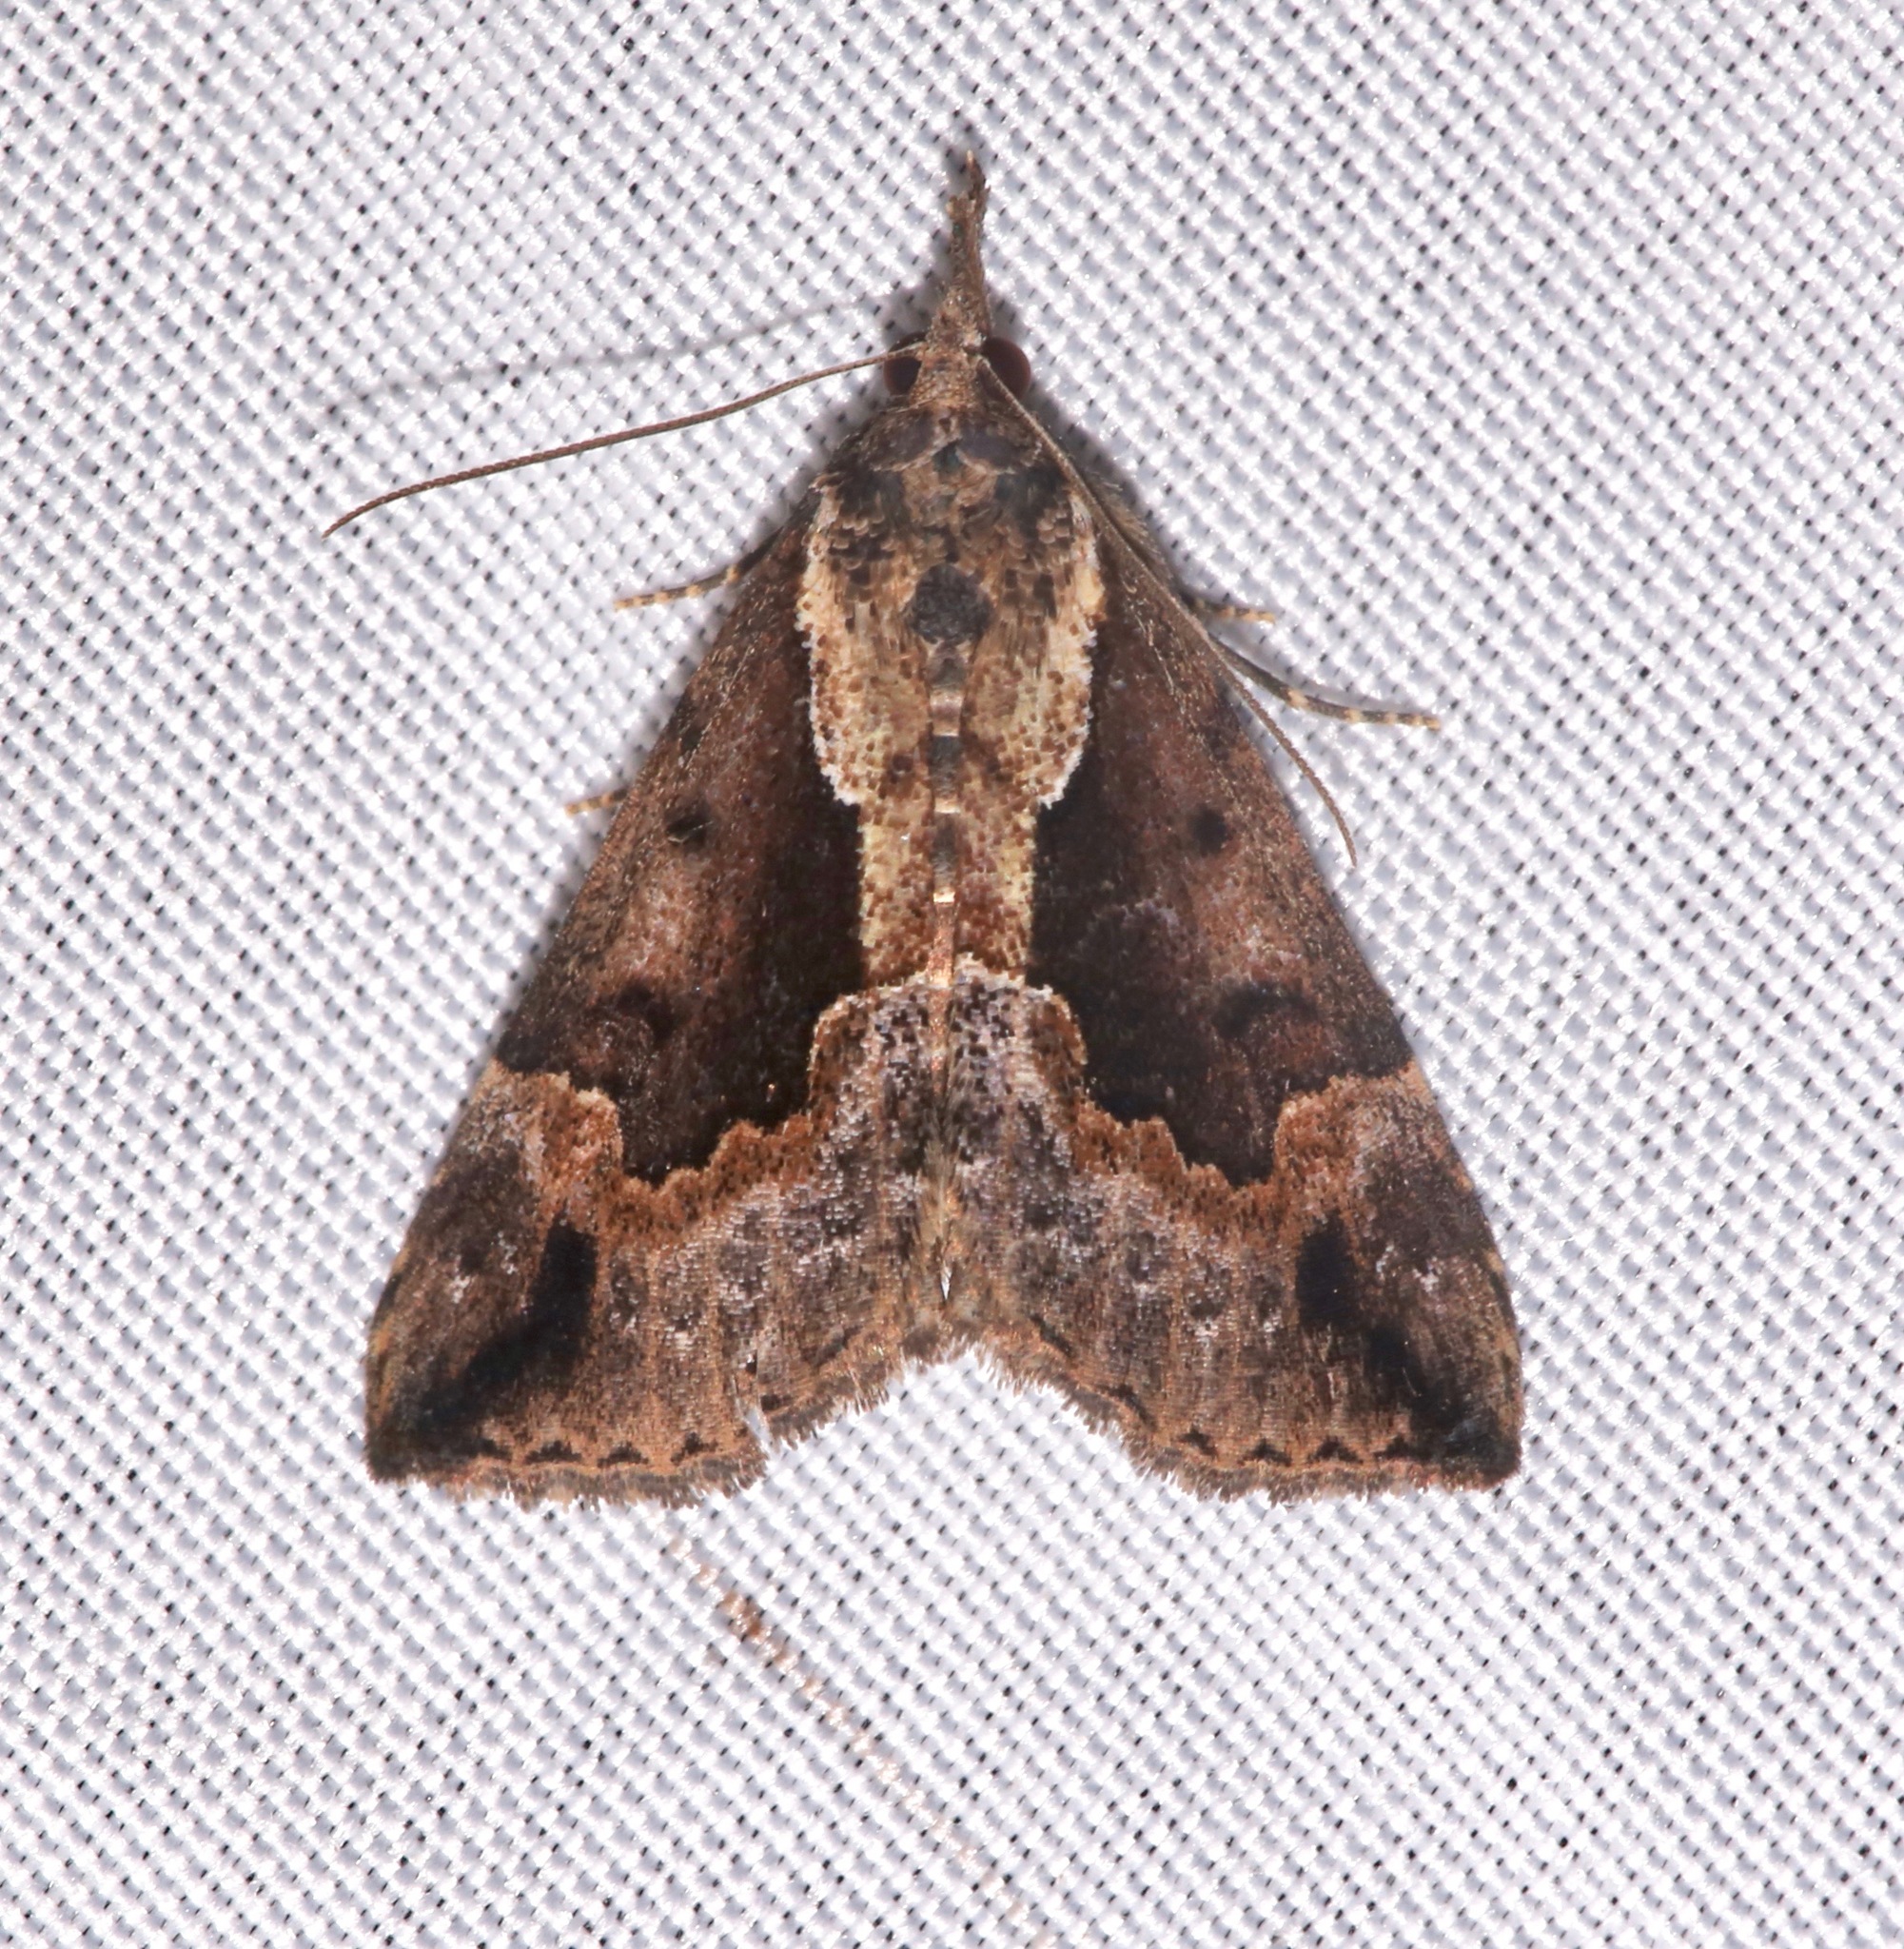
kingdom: Animalia
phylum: Arthropoda
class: Insecta
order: Lepidoptera
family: Erebidae
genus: Hypena
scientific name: Hypena baltimoralis
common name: Baltimore snout
